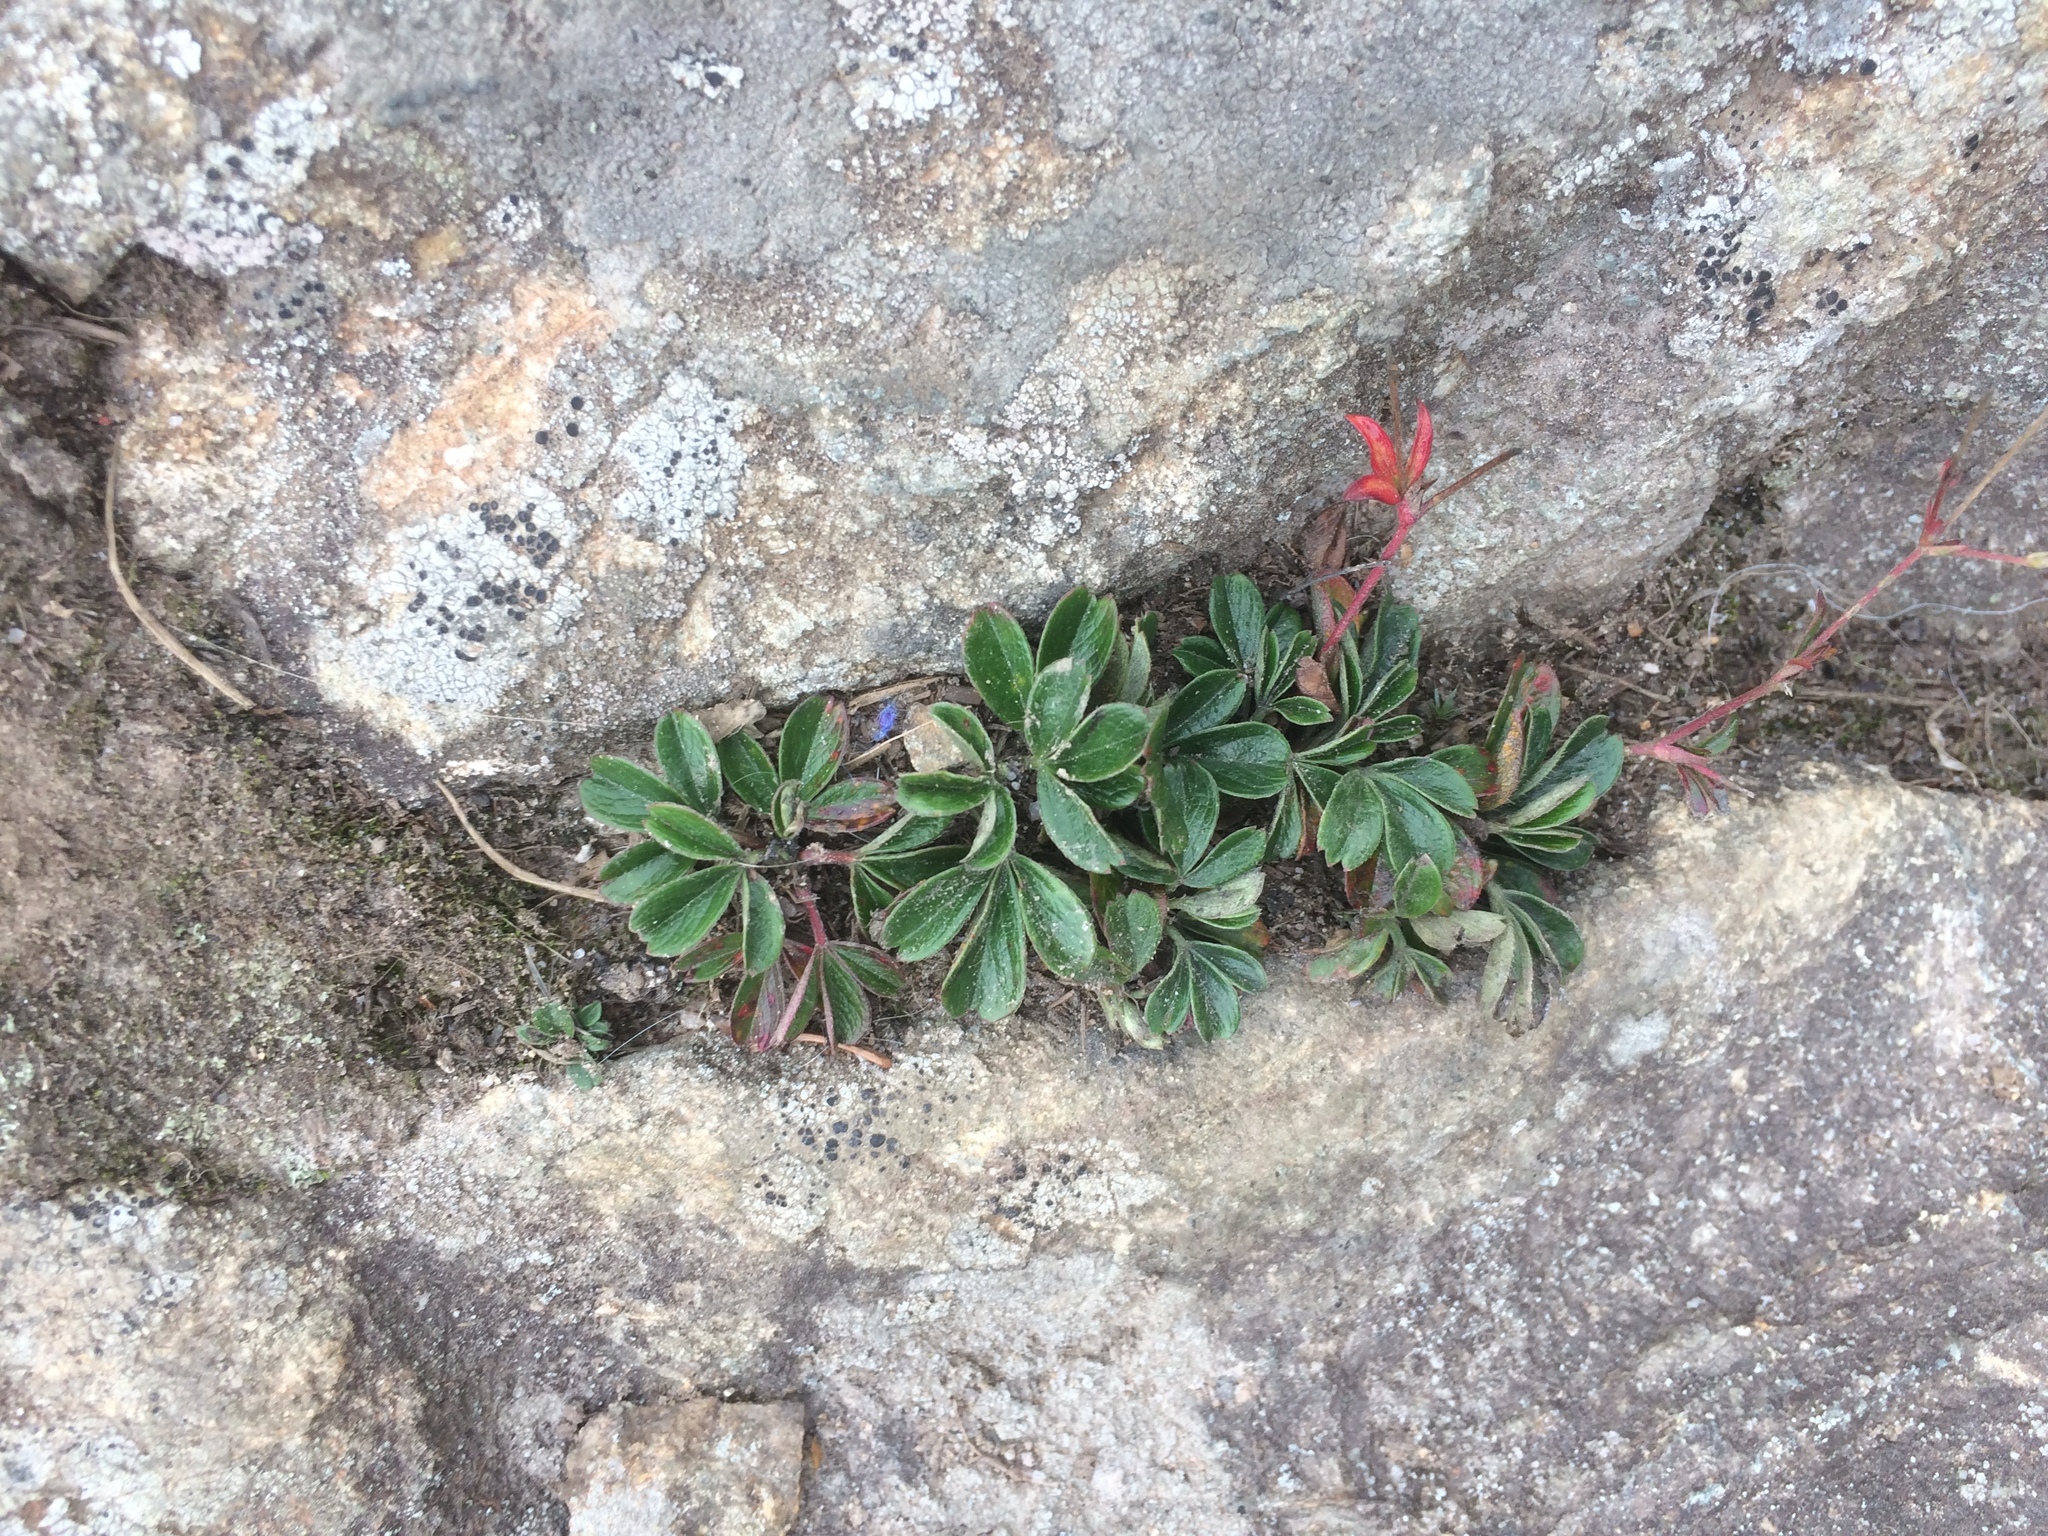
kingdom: Plantae
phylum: Tracheophyta
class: Magnoliopsida
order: Rosales
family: Rosaceae
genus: Sibbaldia
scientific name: Sibbaldia tridentata
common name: Three-toothed cinquefoil
